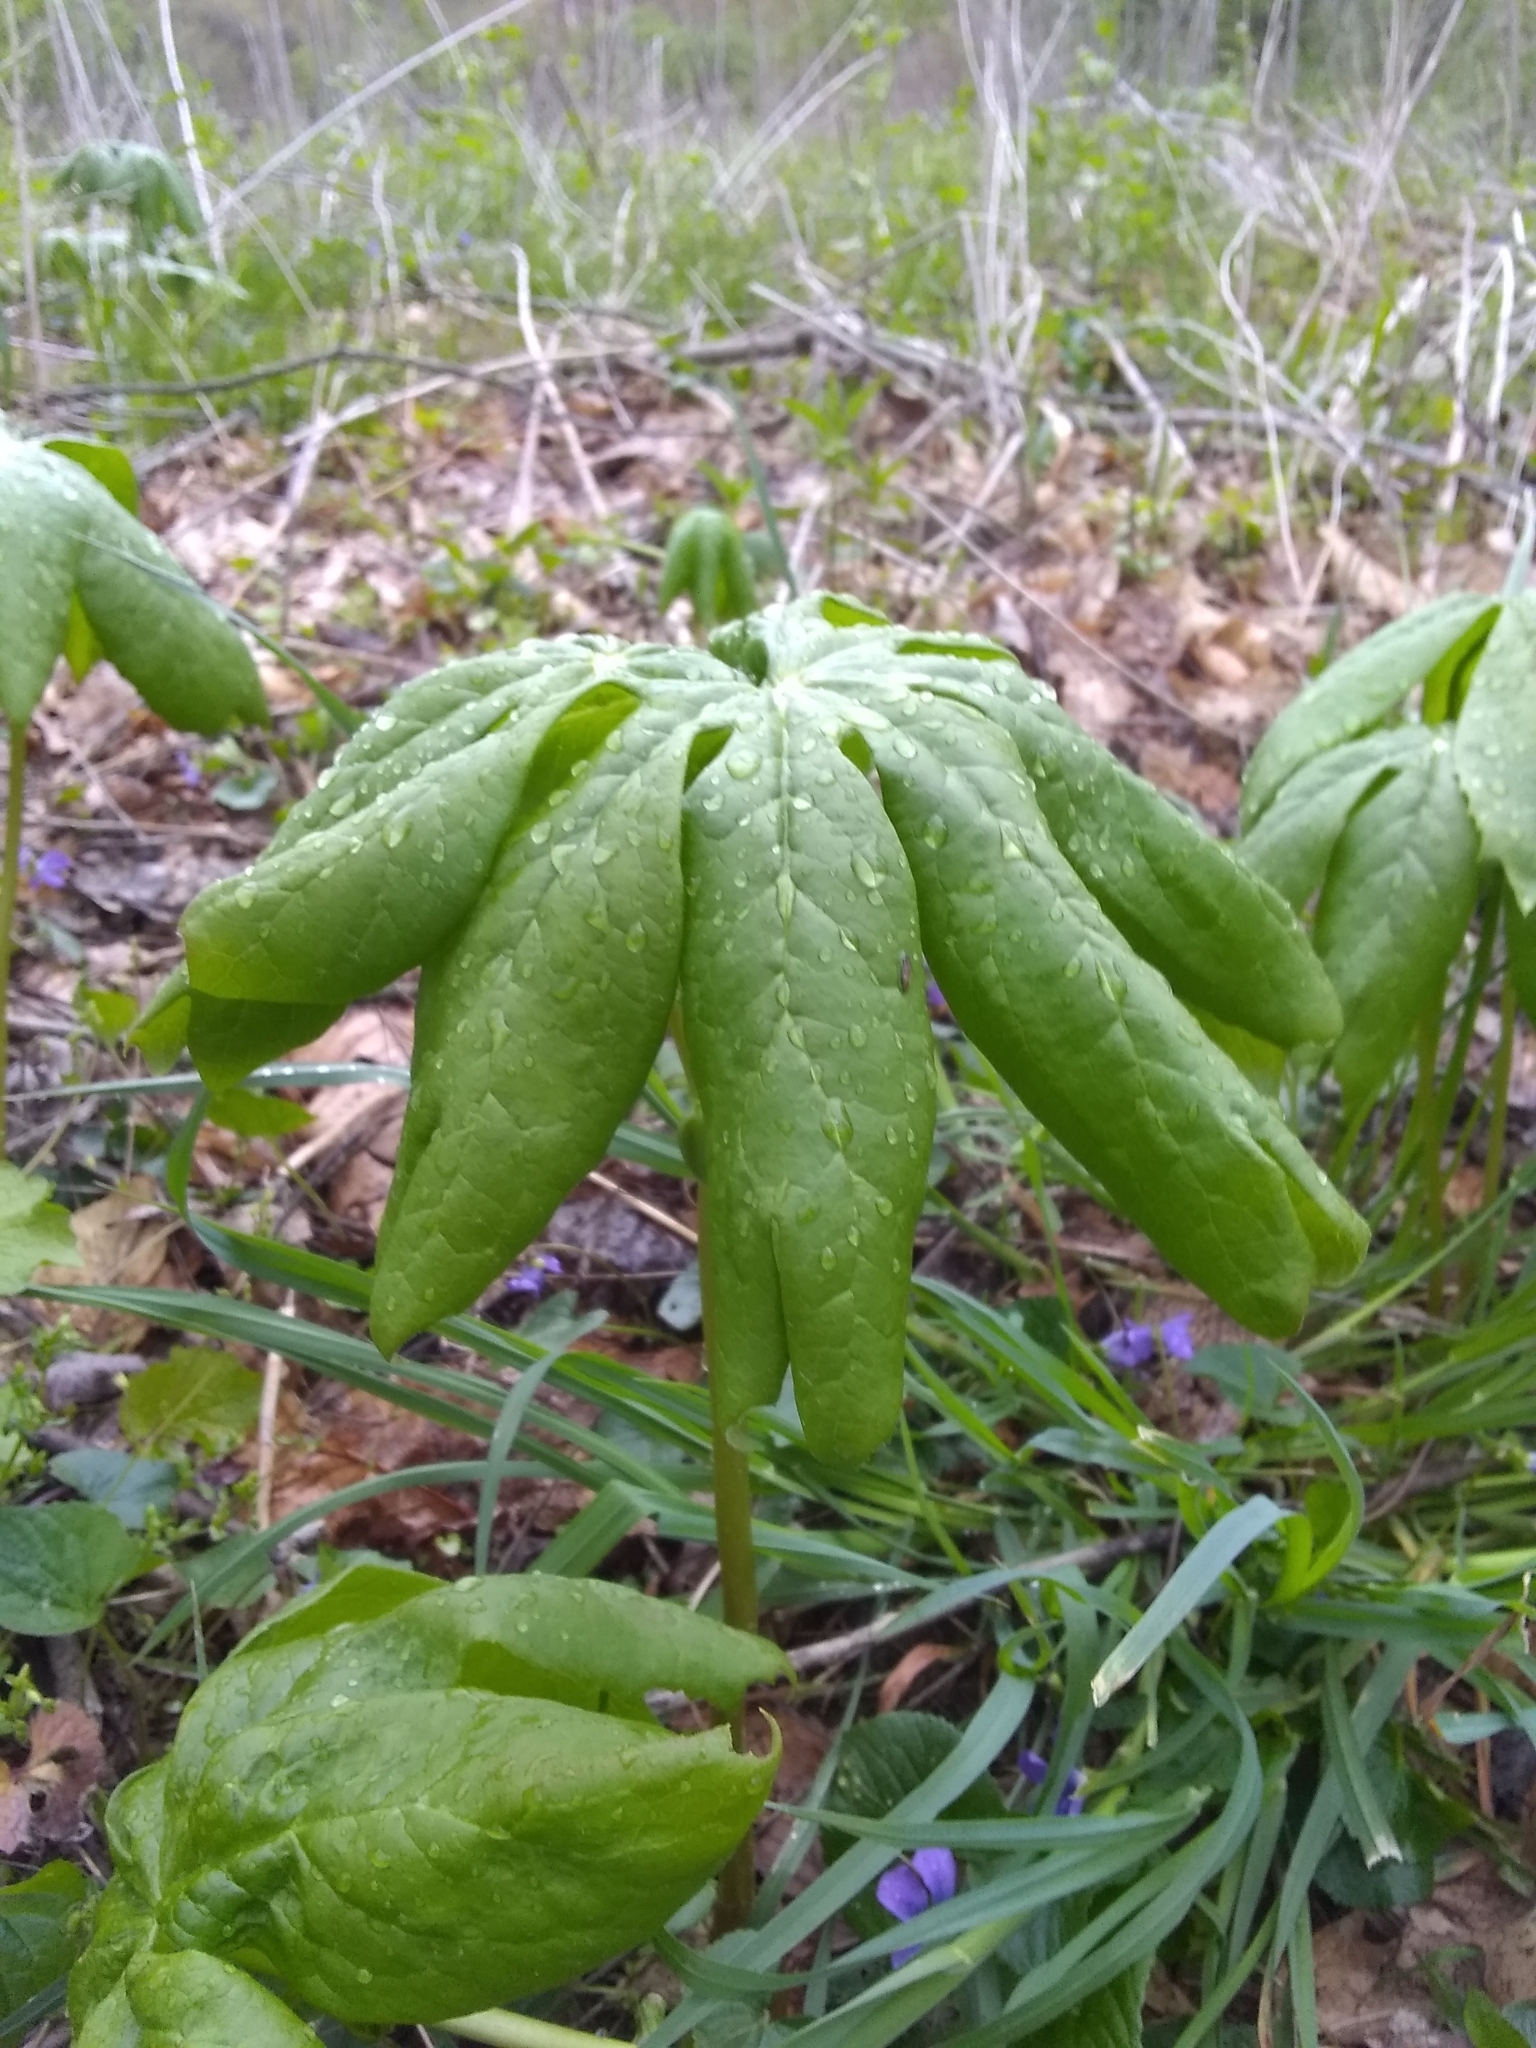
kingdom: Plantae
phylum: Tracheophyta
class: Magnoliopsida
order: Ranunculales
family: Berberidaceae
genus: Podophyllum
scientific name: Podophyllum peltatum
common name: Wild mandrake
